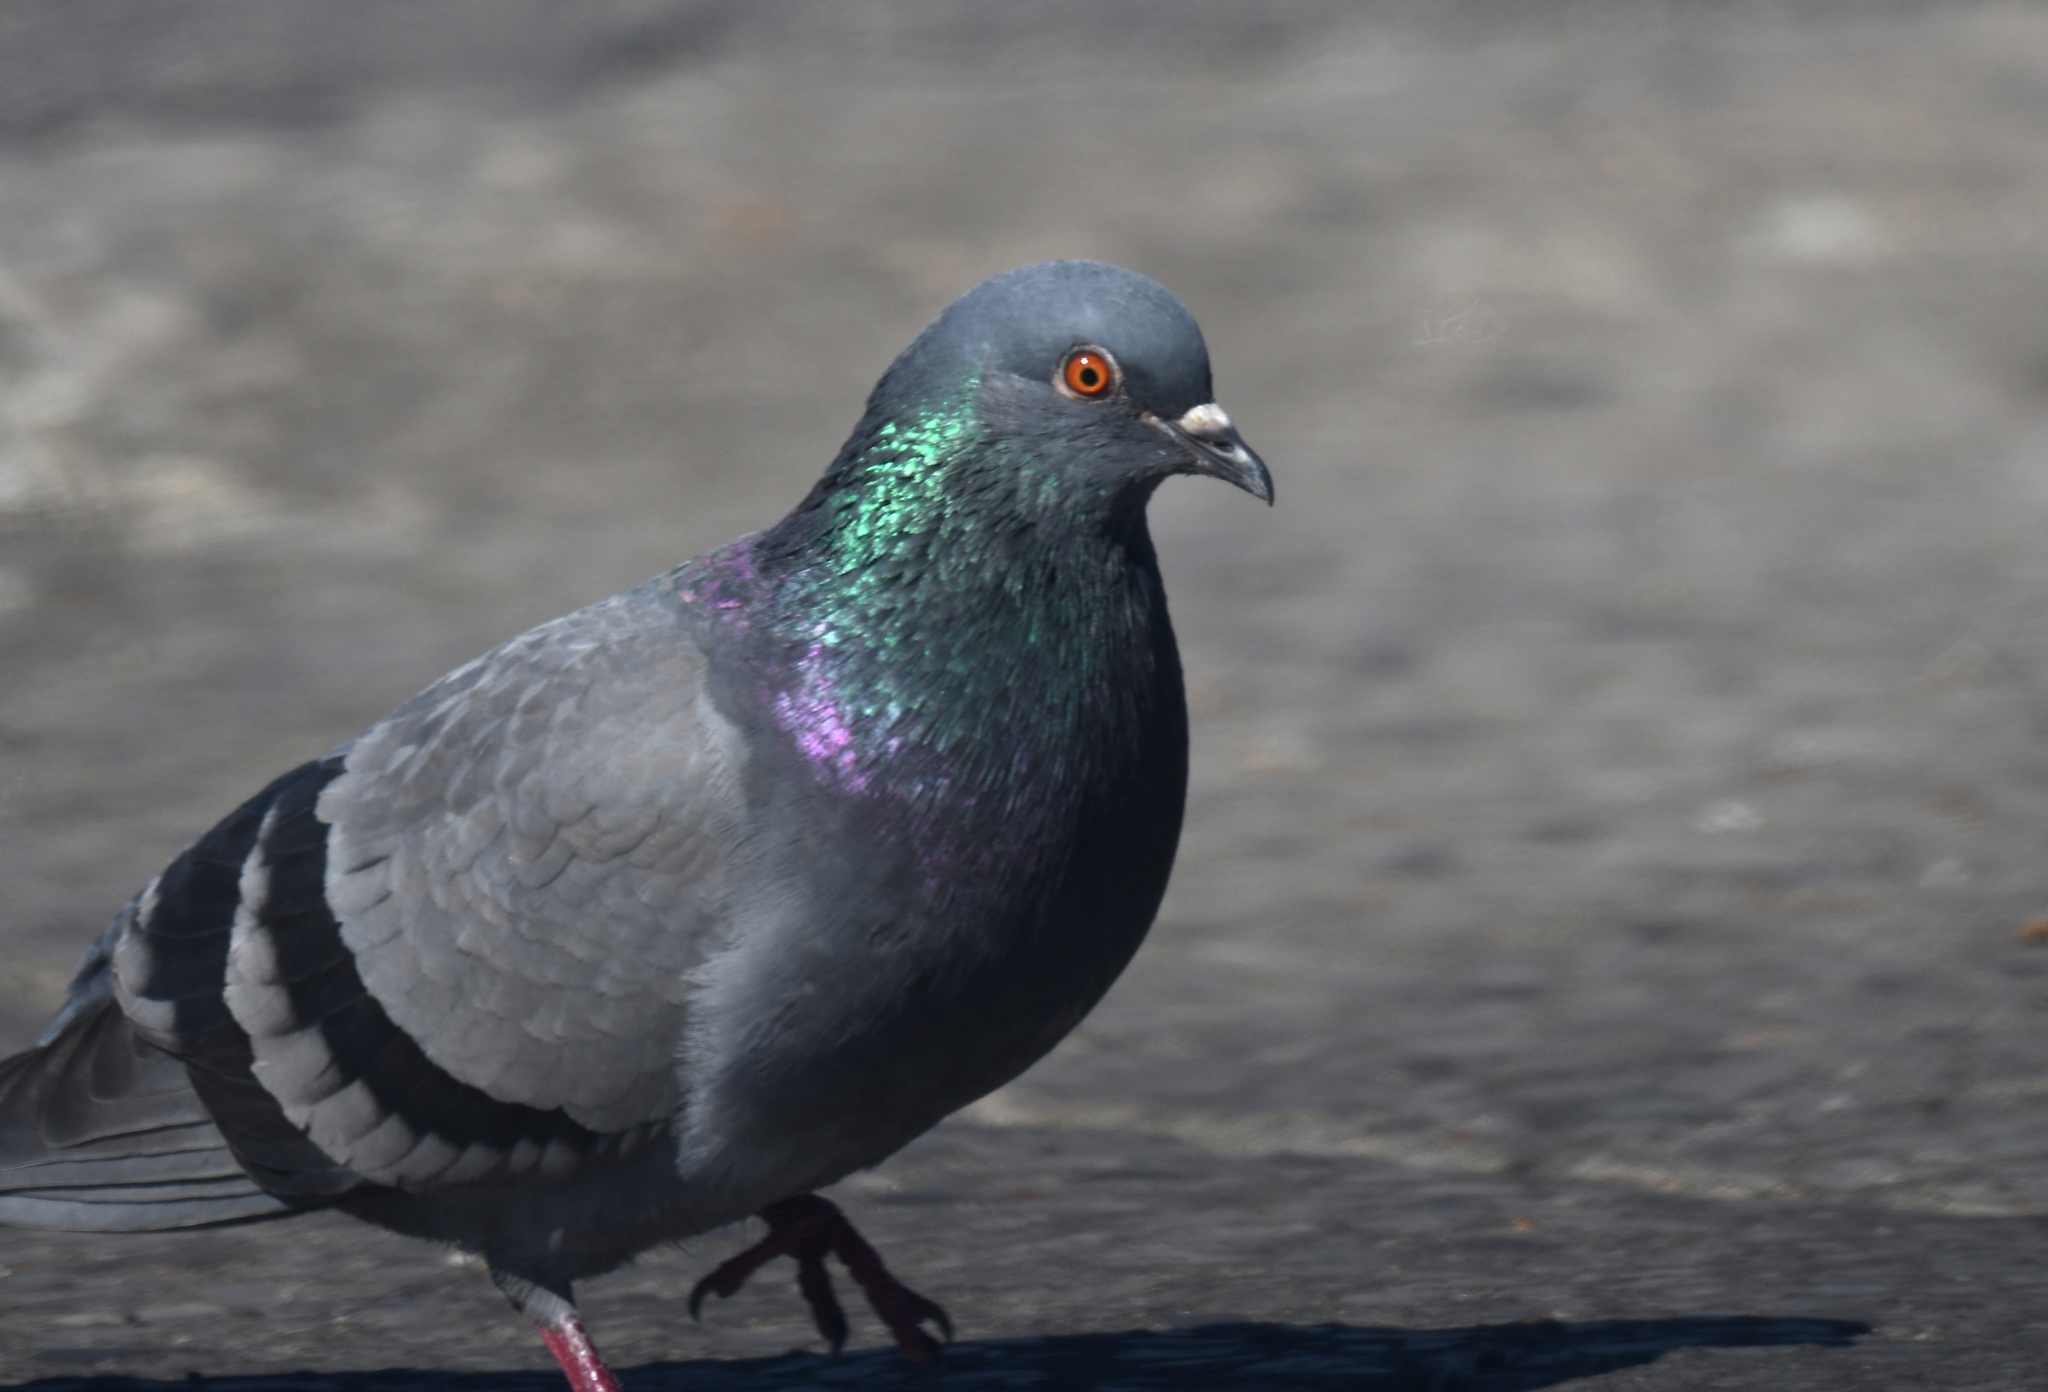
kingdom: Animalia
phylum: Chordata
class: Aves
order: Columbiformes
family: Columbidae
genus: Columba
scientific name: Columba livia
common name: Rock pigeon
